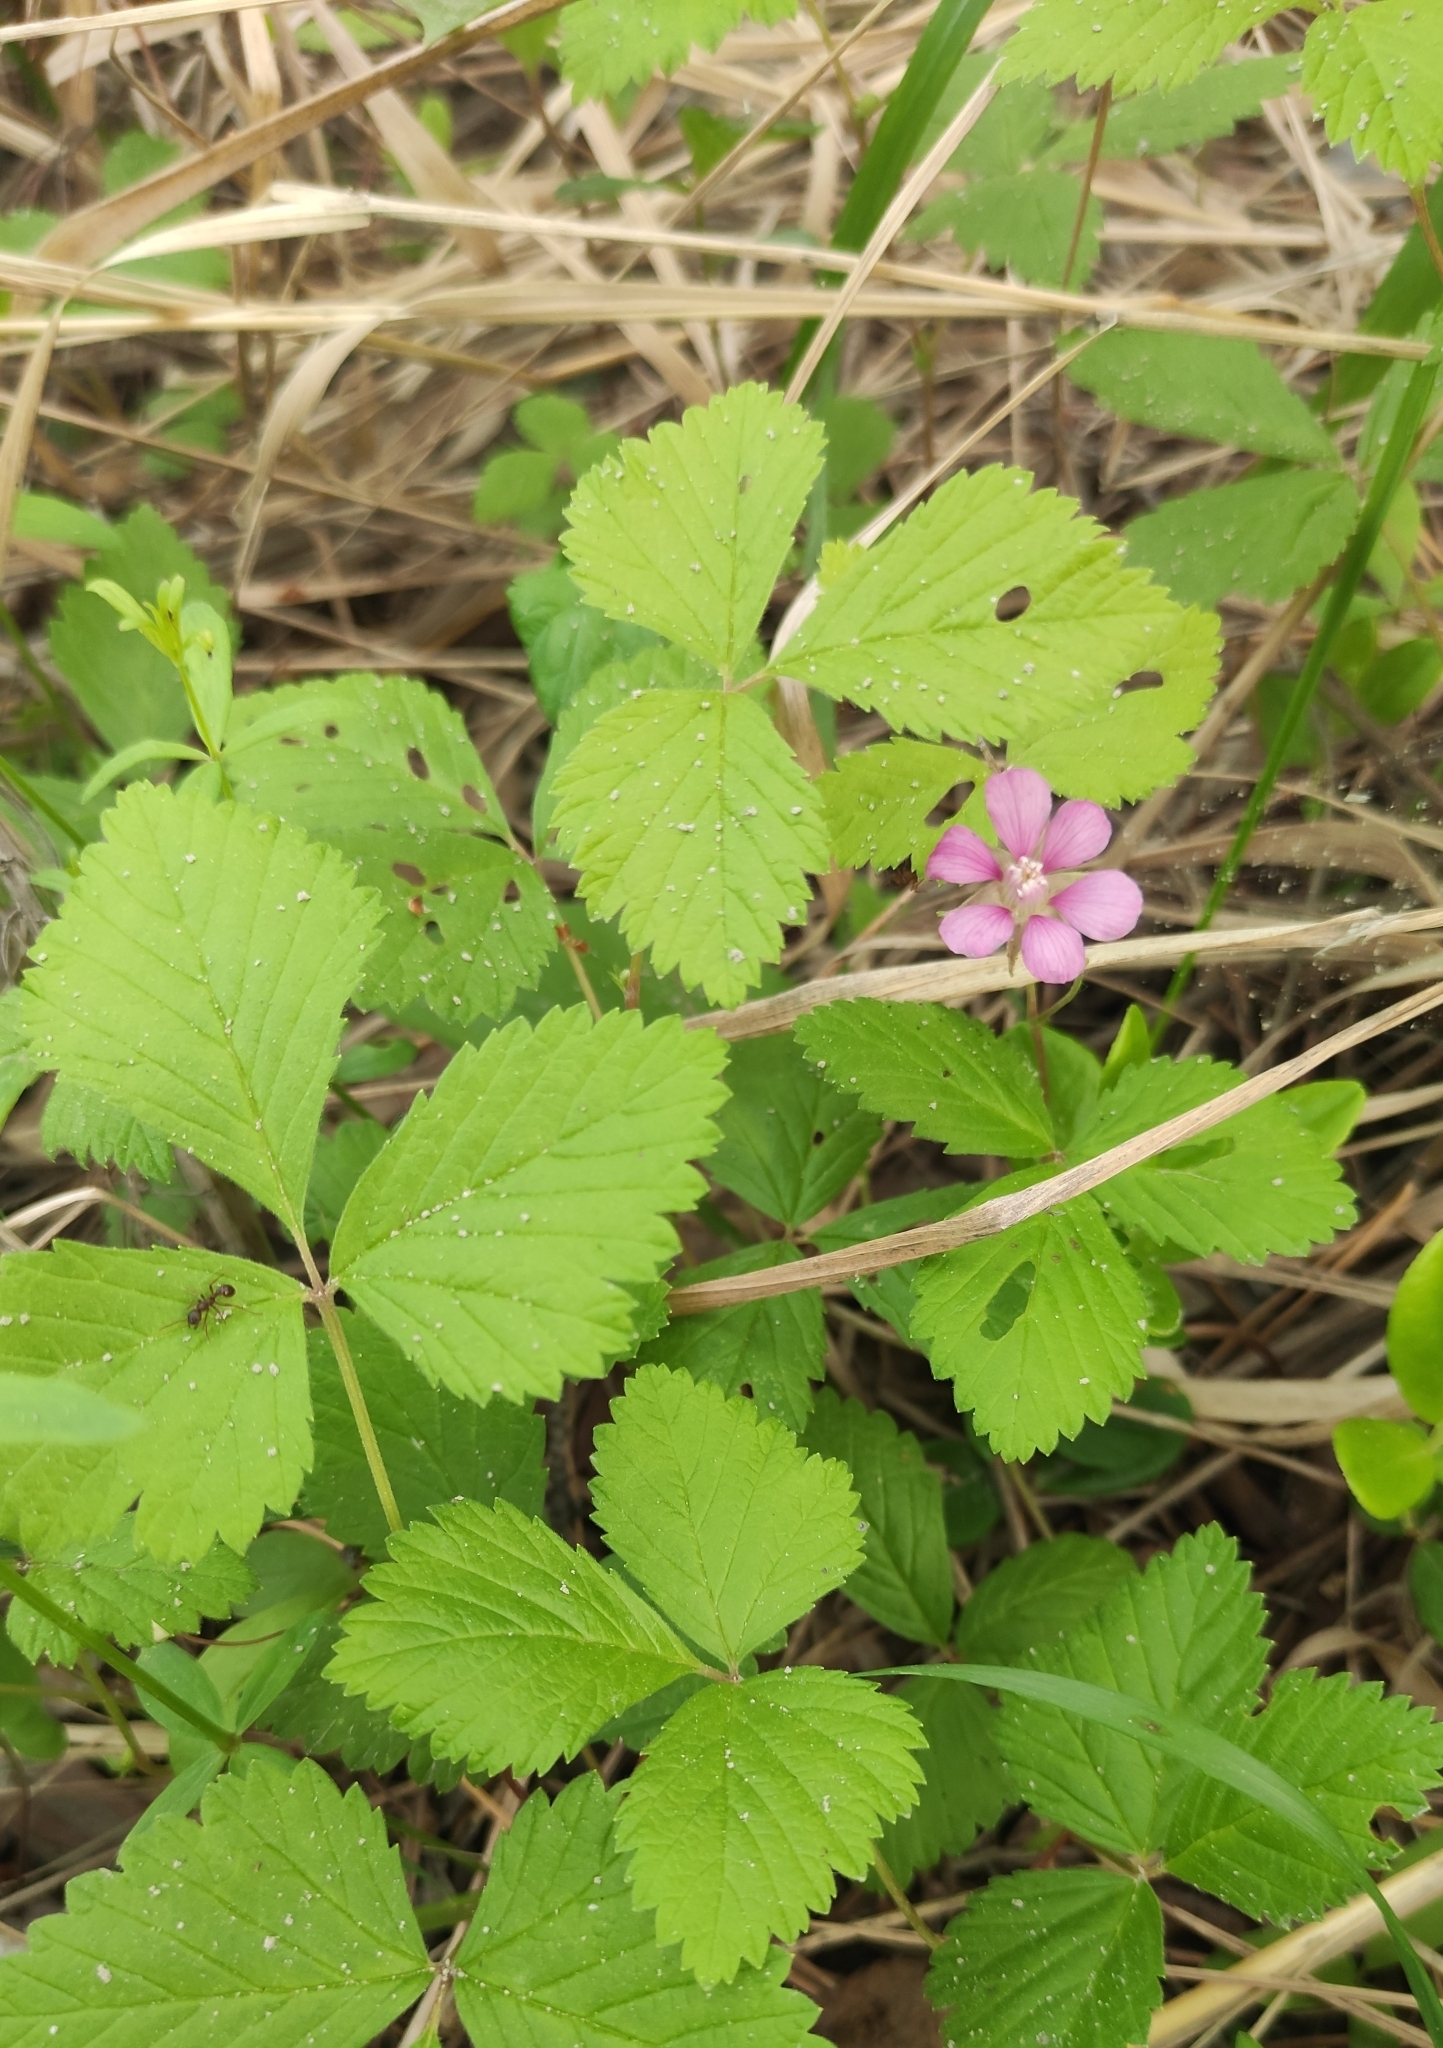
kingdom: Plantae
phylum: Tracheophyta
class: Magnoliopsida
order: Rosales
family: Rosaceae
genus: Rubus
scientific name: Rubus arcticus
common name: Arctic bramble
